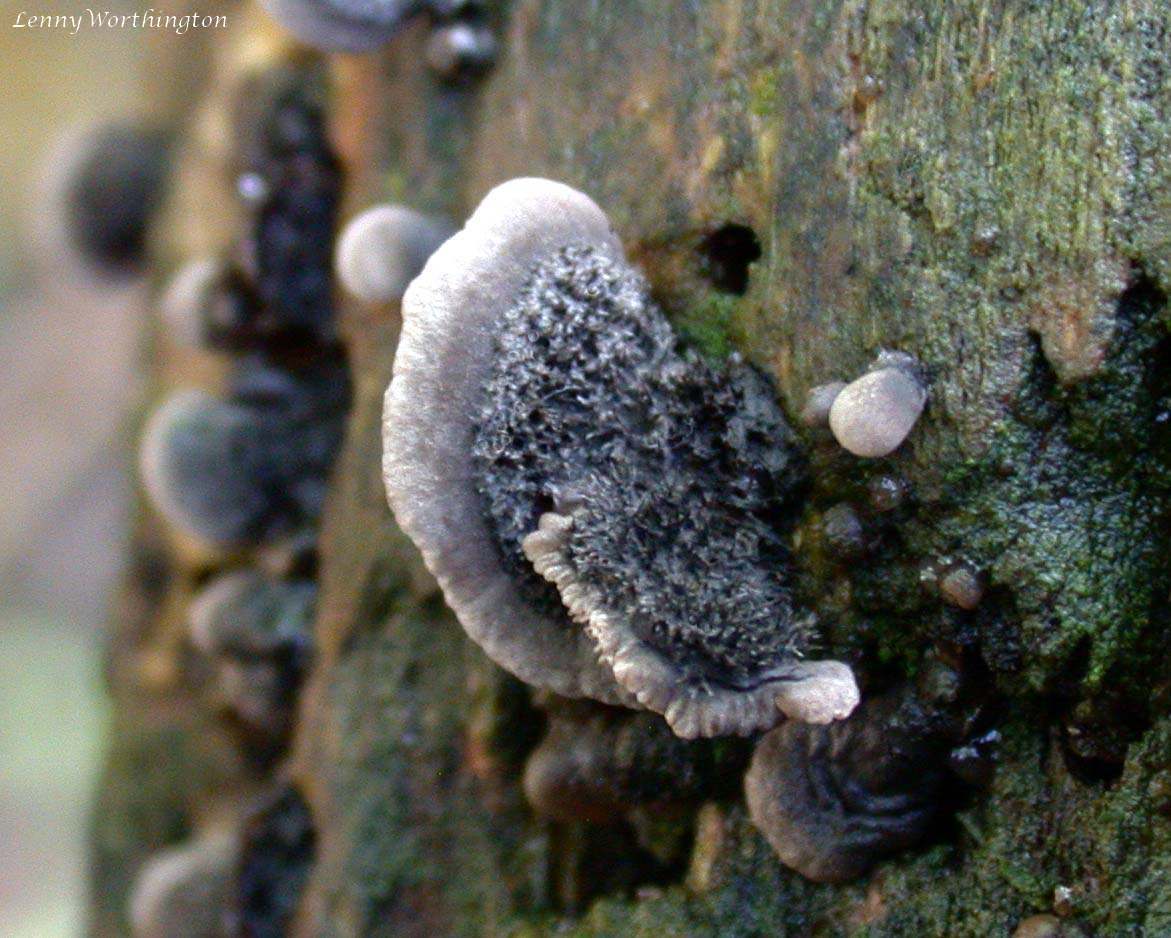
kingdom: Fungi
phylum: Basidiomycota
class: Agaricomycetes
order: Agaricales
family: Pleurotaceae
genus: Resupinatus
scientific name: Resupinatus trichotis
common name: Hairy oysterling
